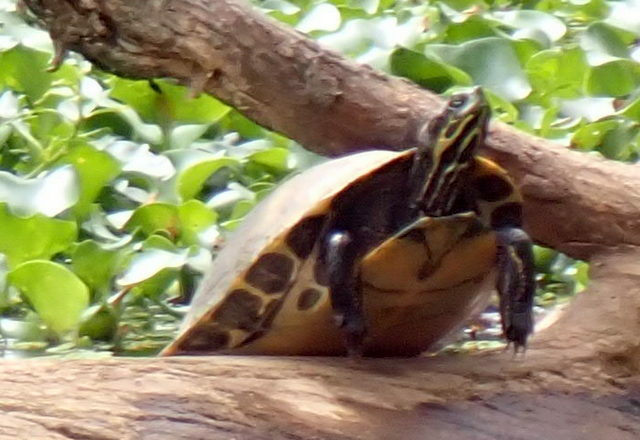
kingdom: Animalia
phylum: Chordata
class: Testudines
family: Emydidae
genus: Pseudemys
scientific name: Pseudemys concinna
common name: Eastern river cooter
